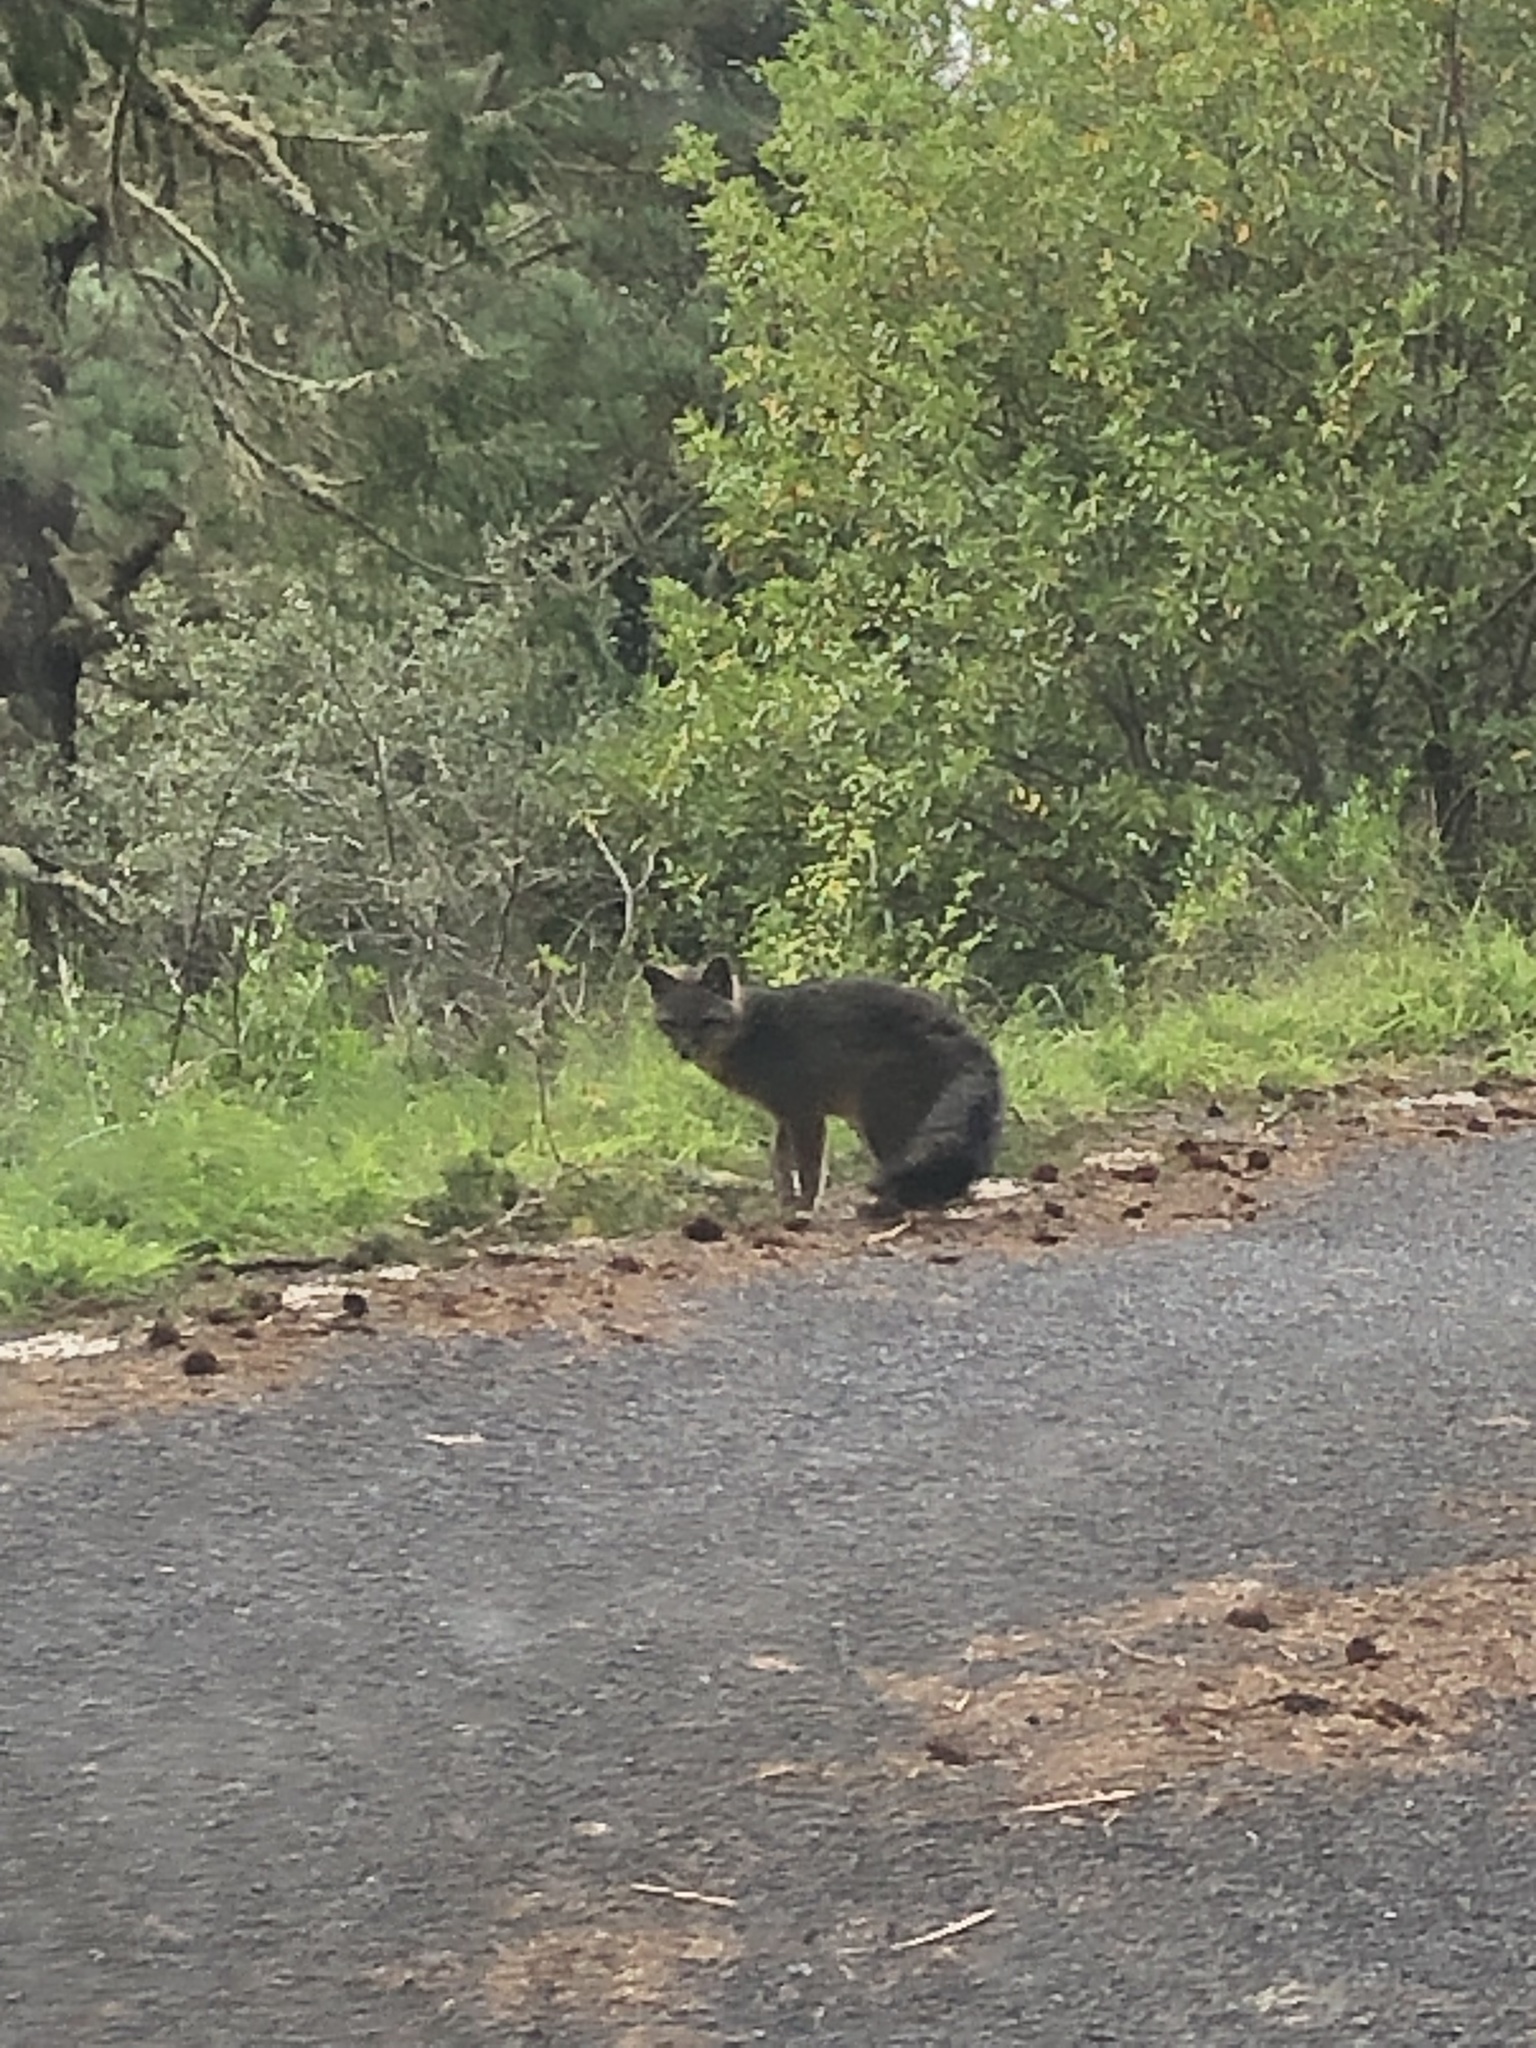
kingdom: Animalia
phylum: Chordata
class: Mammalia
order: Carnivora
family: Canidae
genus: Urocyon
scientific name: Urocyon cinereoargenteus
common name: Gray fox
